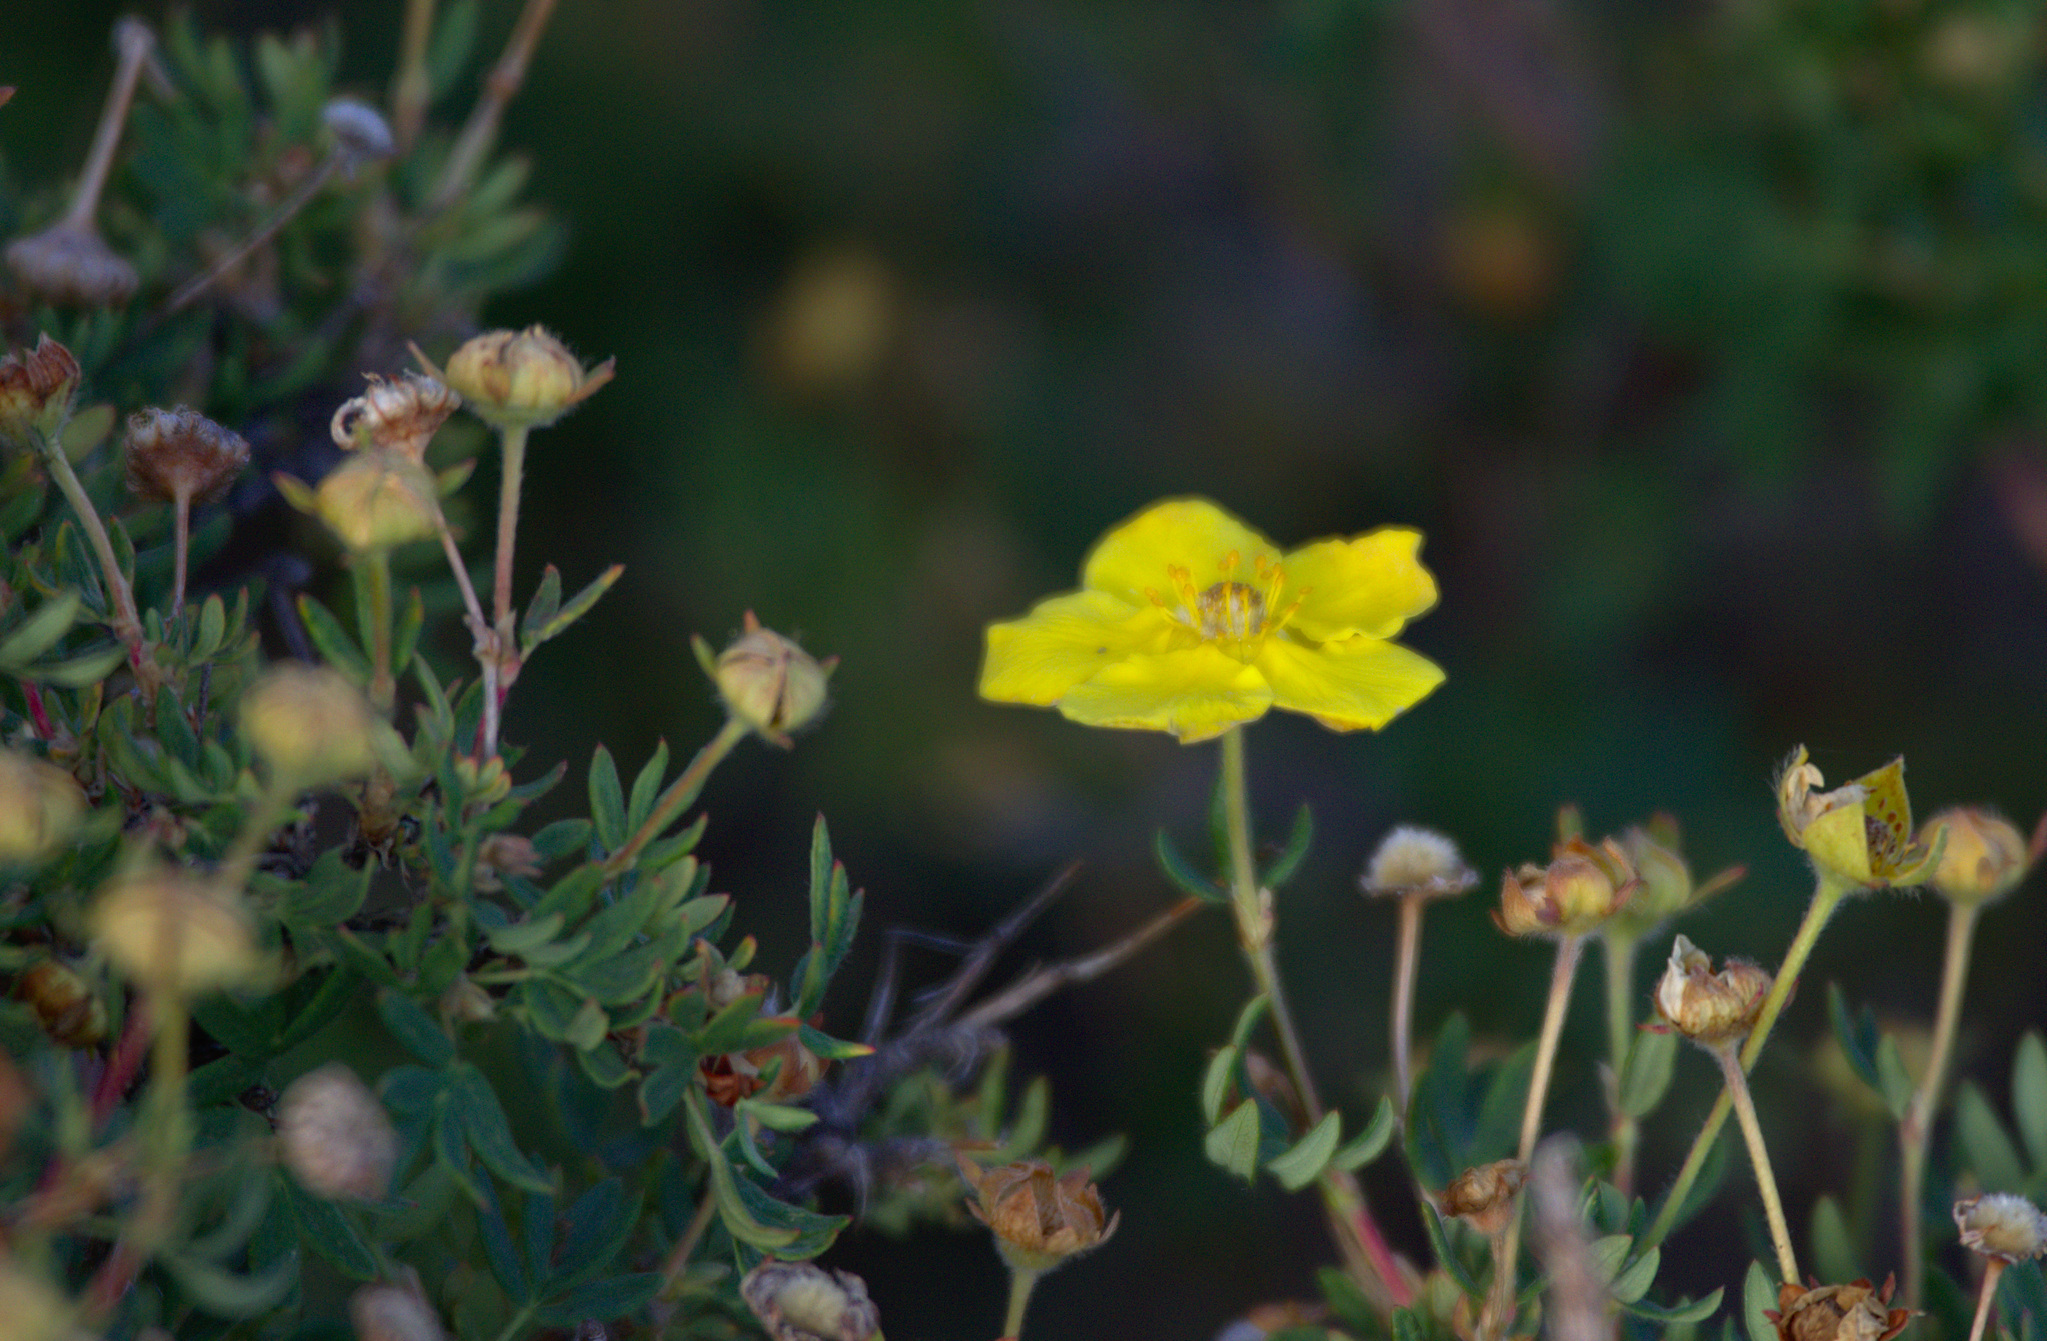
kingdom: Plantae
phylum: Tracheophyta
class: Magnoliopsida
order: Rosales
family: Rosaceae
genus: Dasiphora
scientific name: Dasiphora fruticosa
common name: Shrubby cinquefoil
